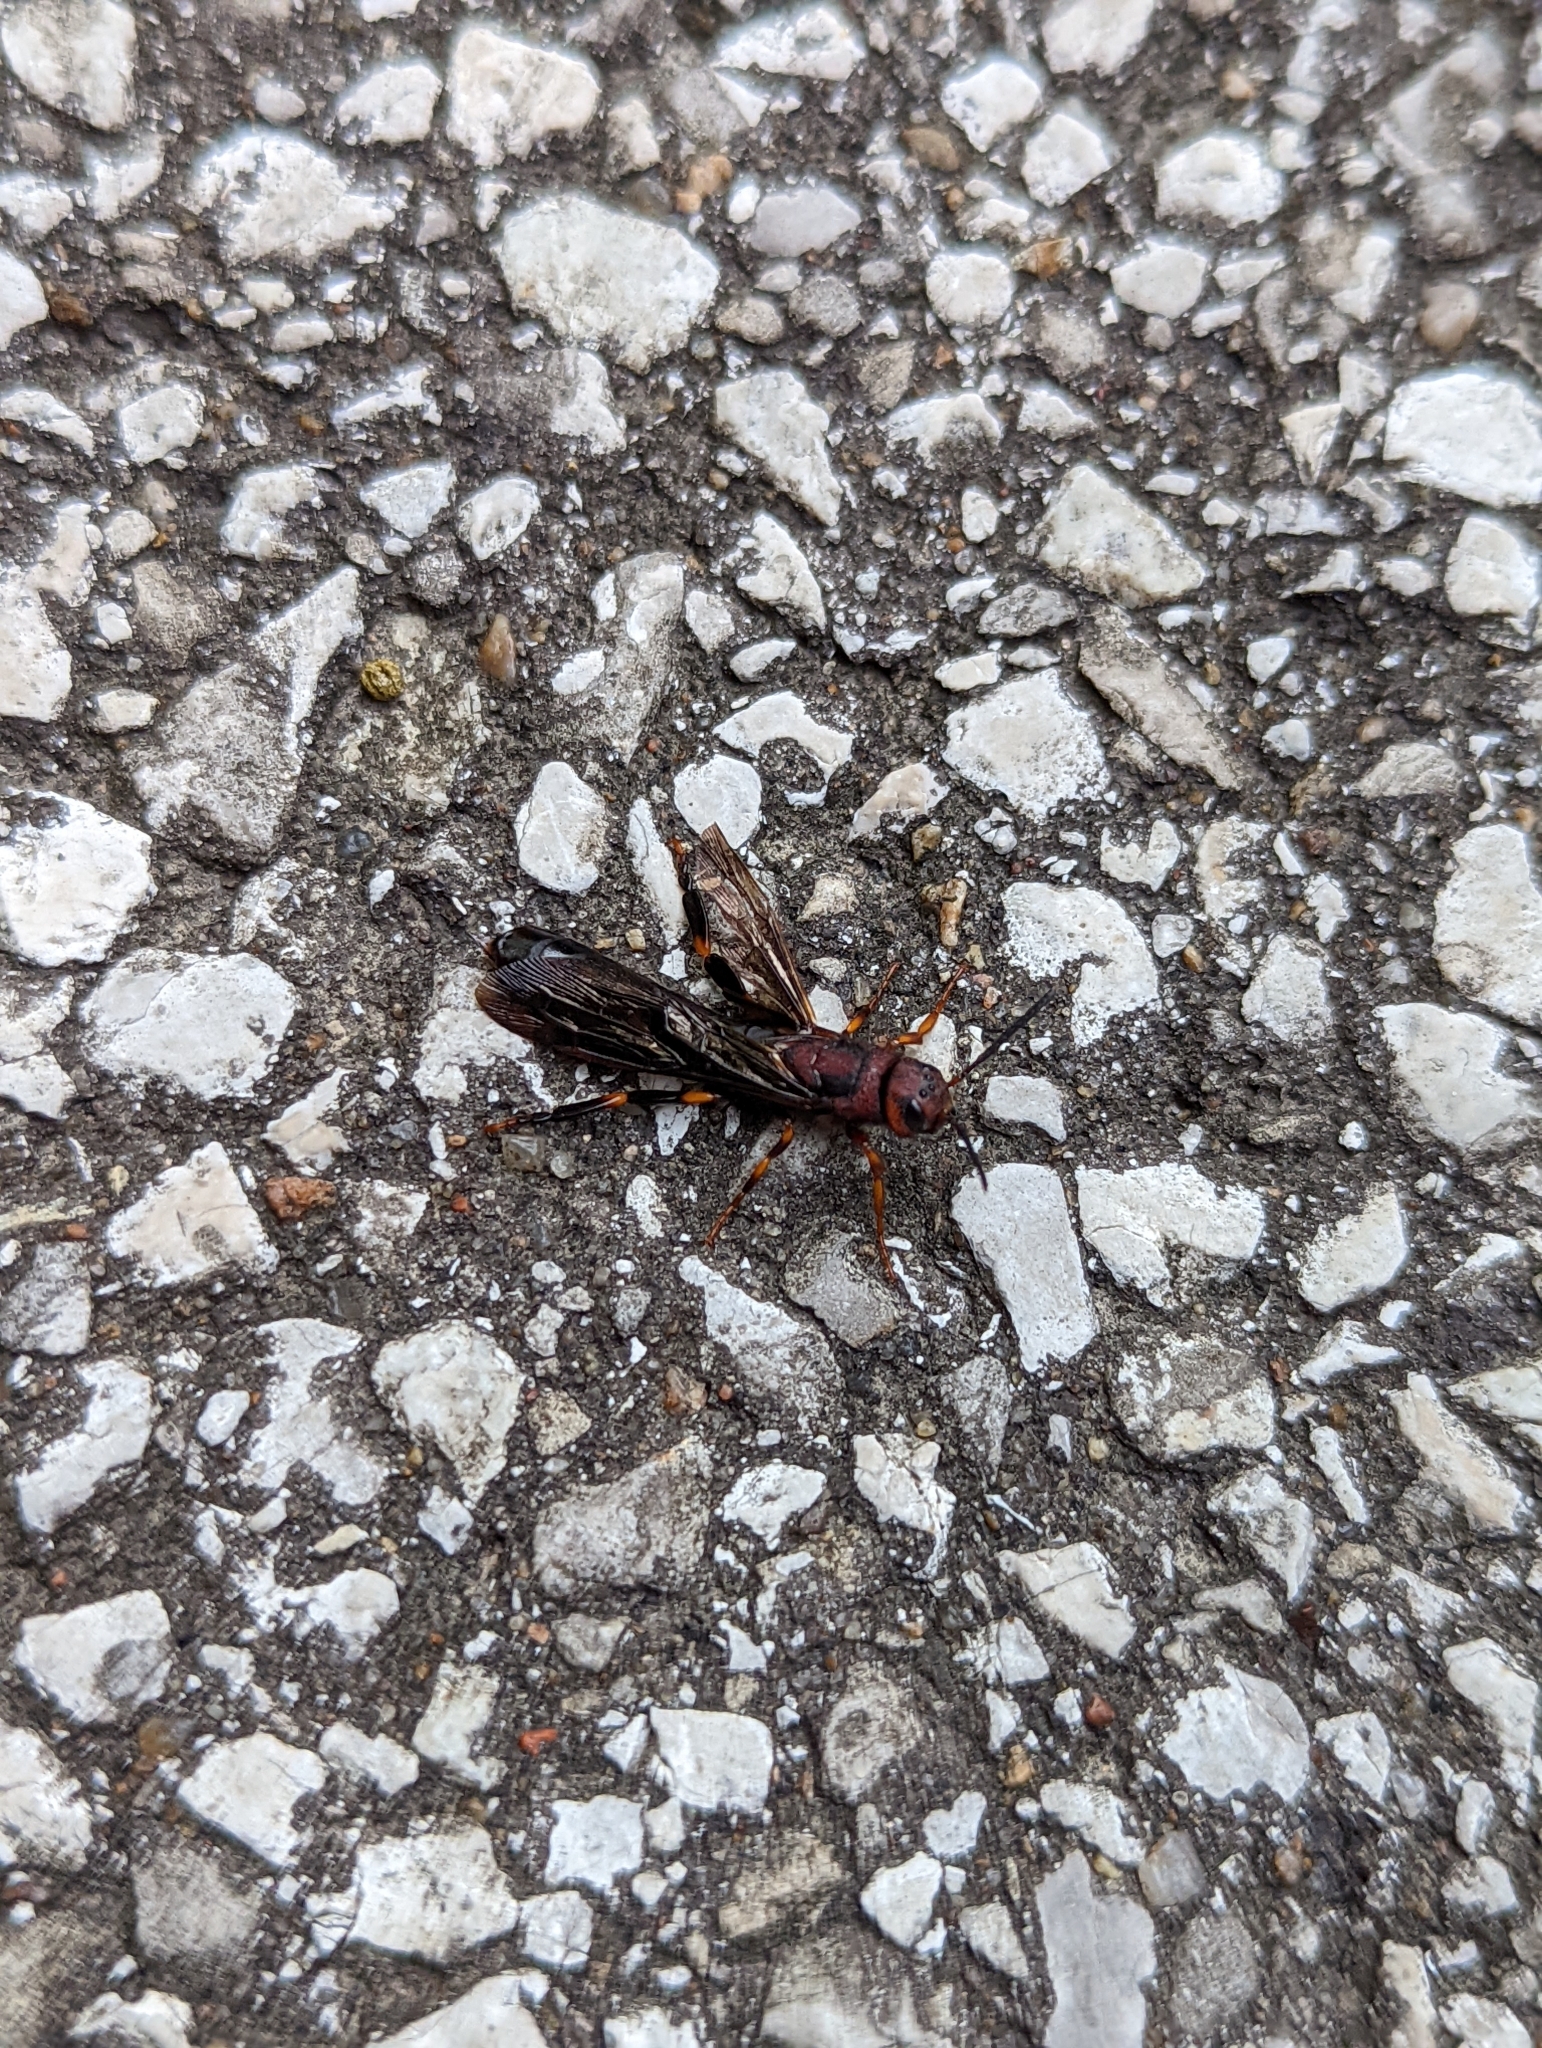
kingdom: Animalia
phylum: Arthropoda
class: Insecta
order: Hymenoptera
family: Siricidae
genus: Tremex
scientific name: Tremex columba
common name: Wasp
